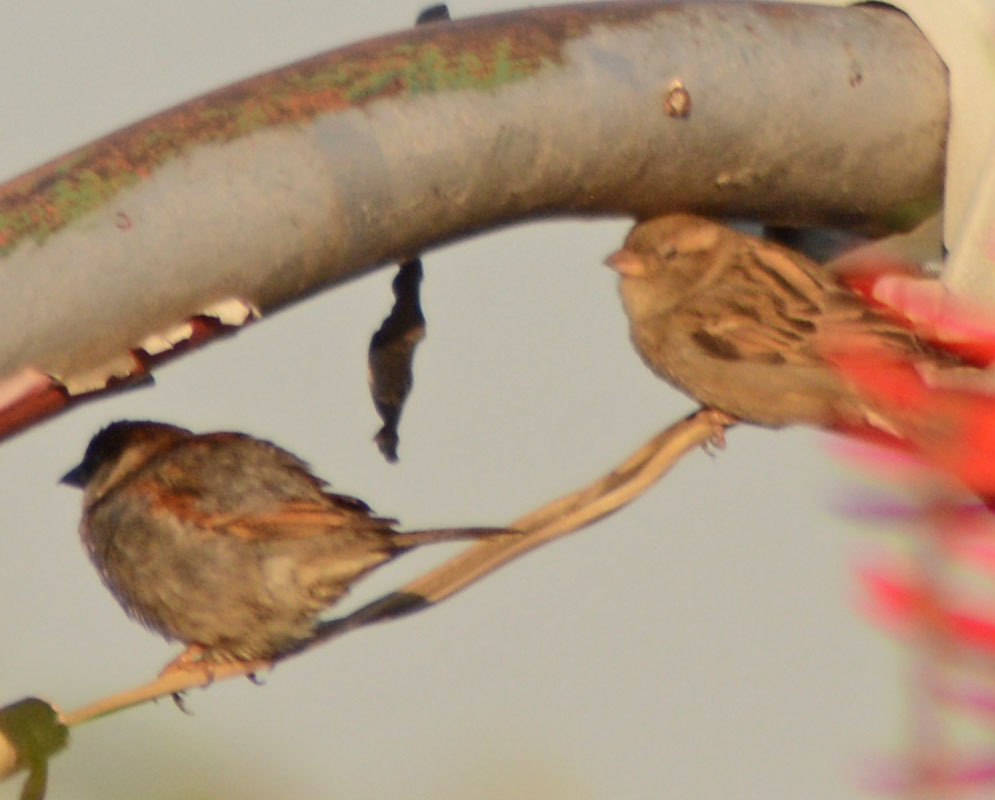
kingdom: Animalia
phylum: Chordata
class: Aves
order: Passeriformes
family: Passeridae
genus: Passer
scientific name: Passer domesticus
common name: House sparrow
